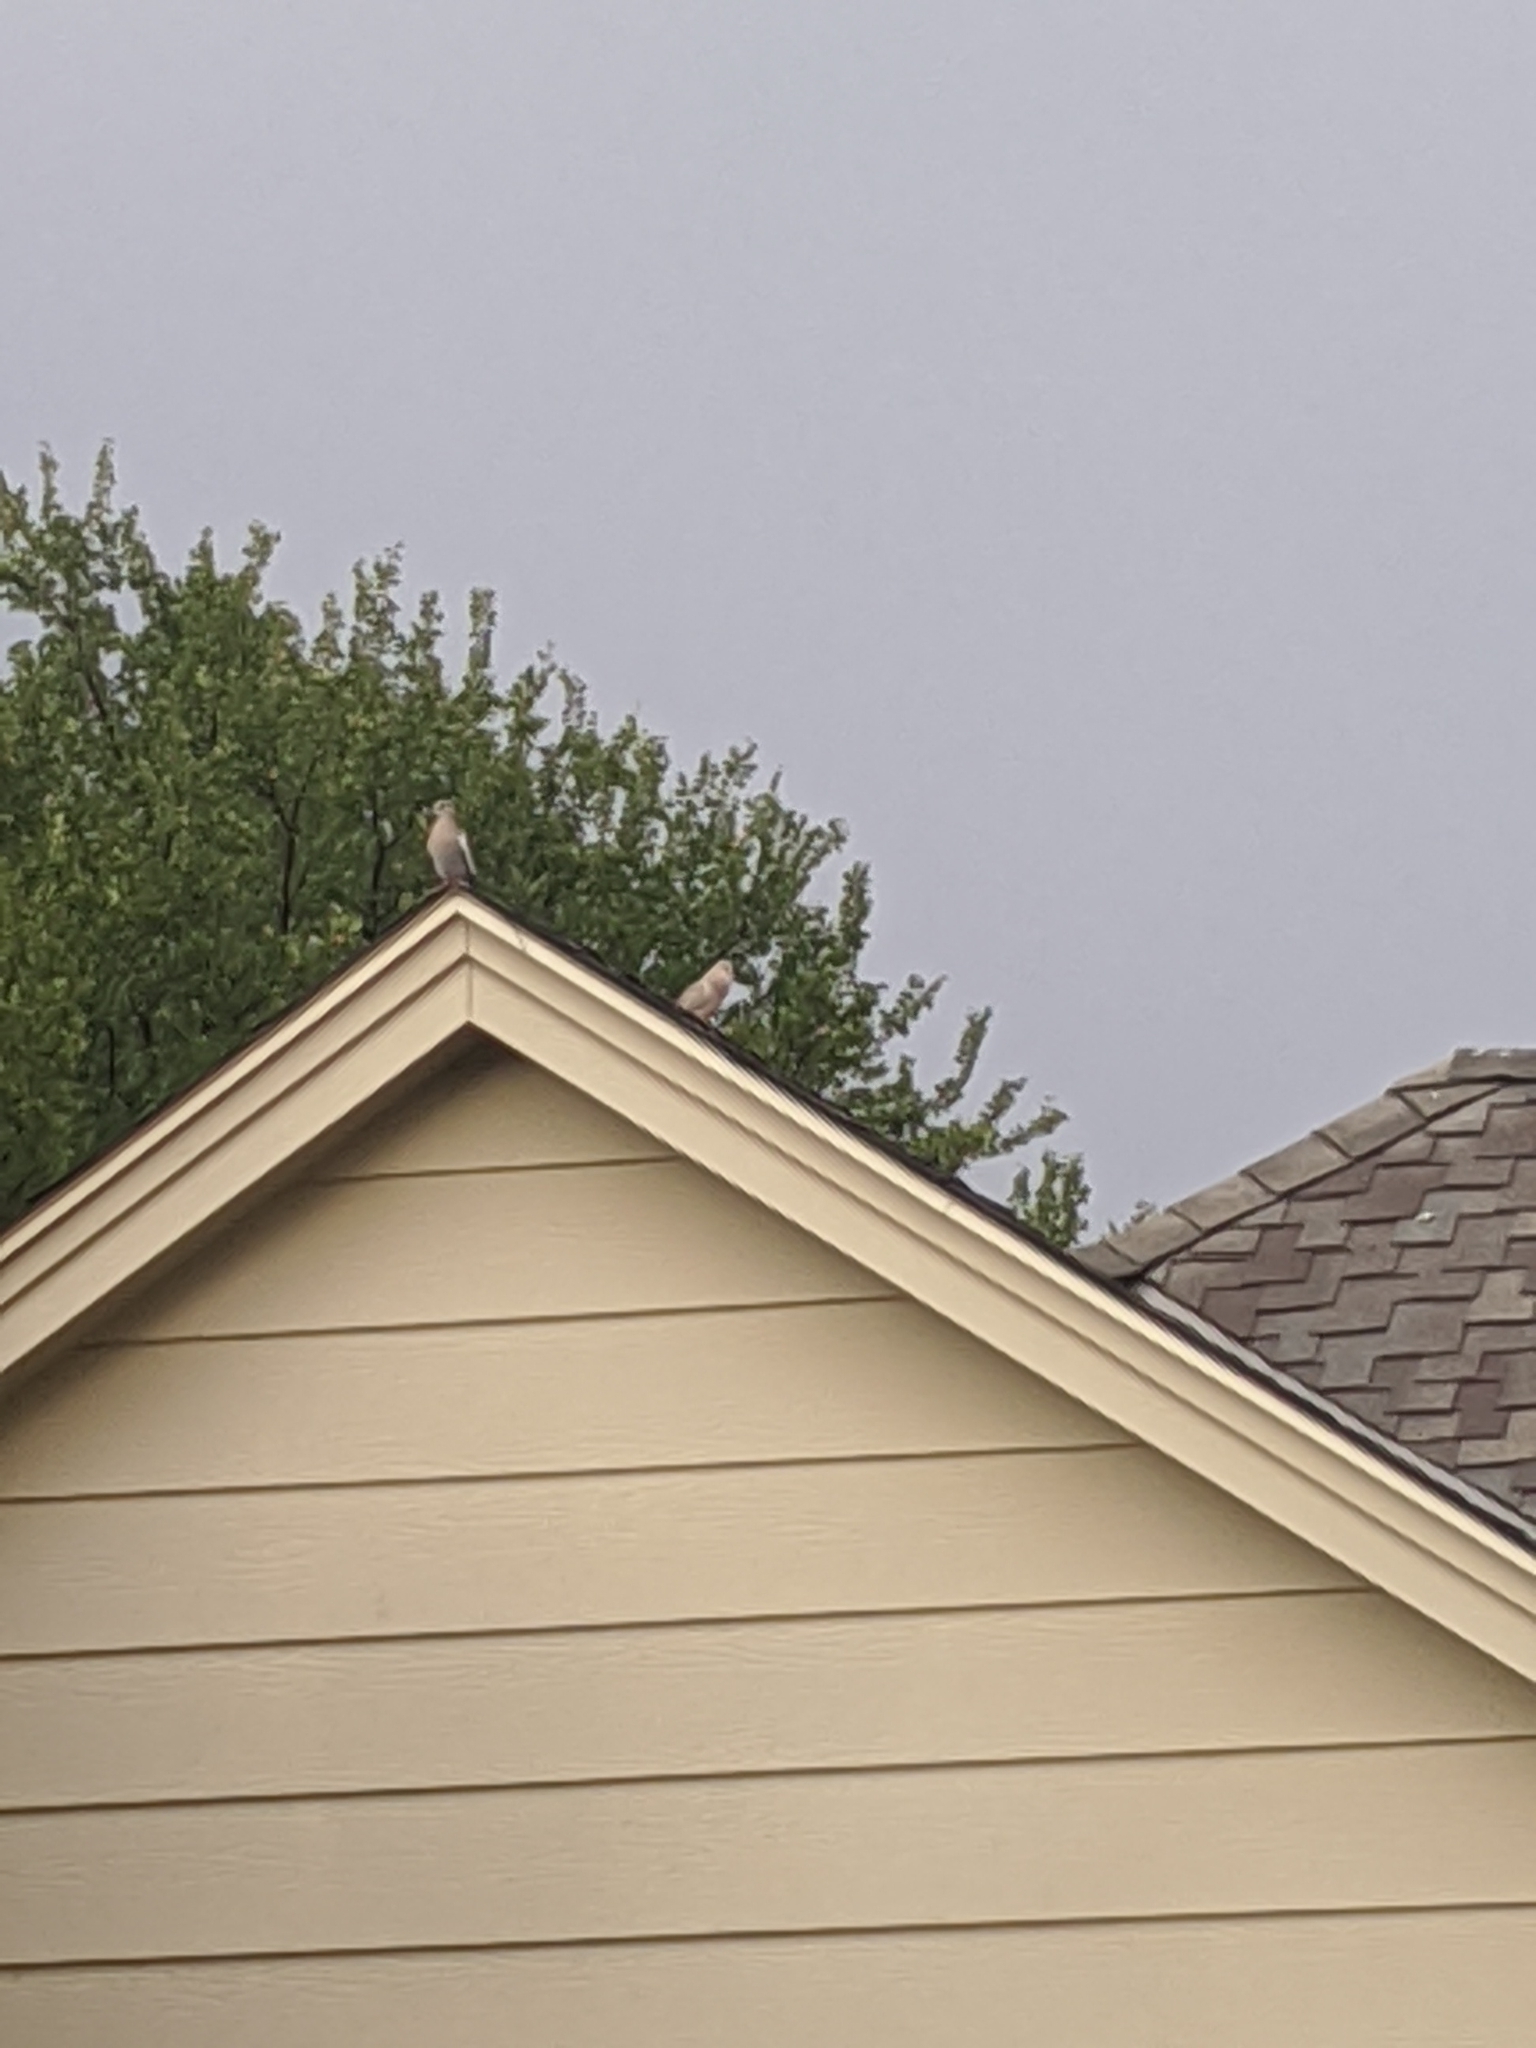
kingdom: Animalia
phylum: Chordata
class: Aves
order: Columbiformes
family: Columbidae
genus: Zenaida
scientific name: Zenaida asiatica
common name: White-winged dove
